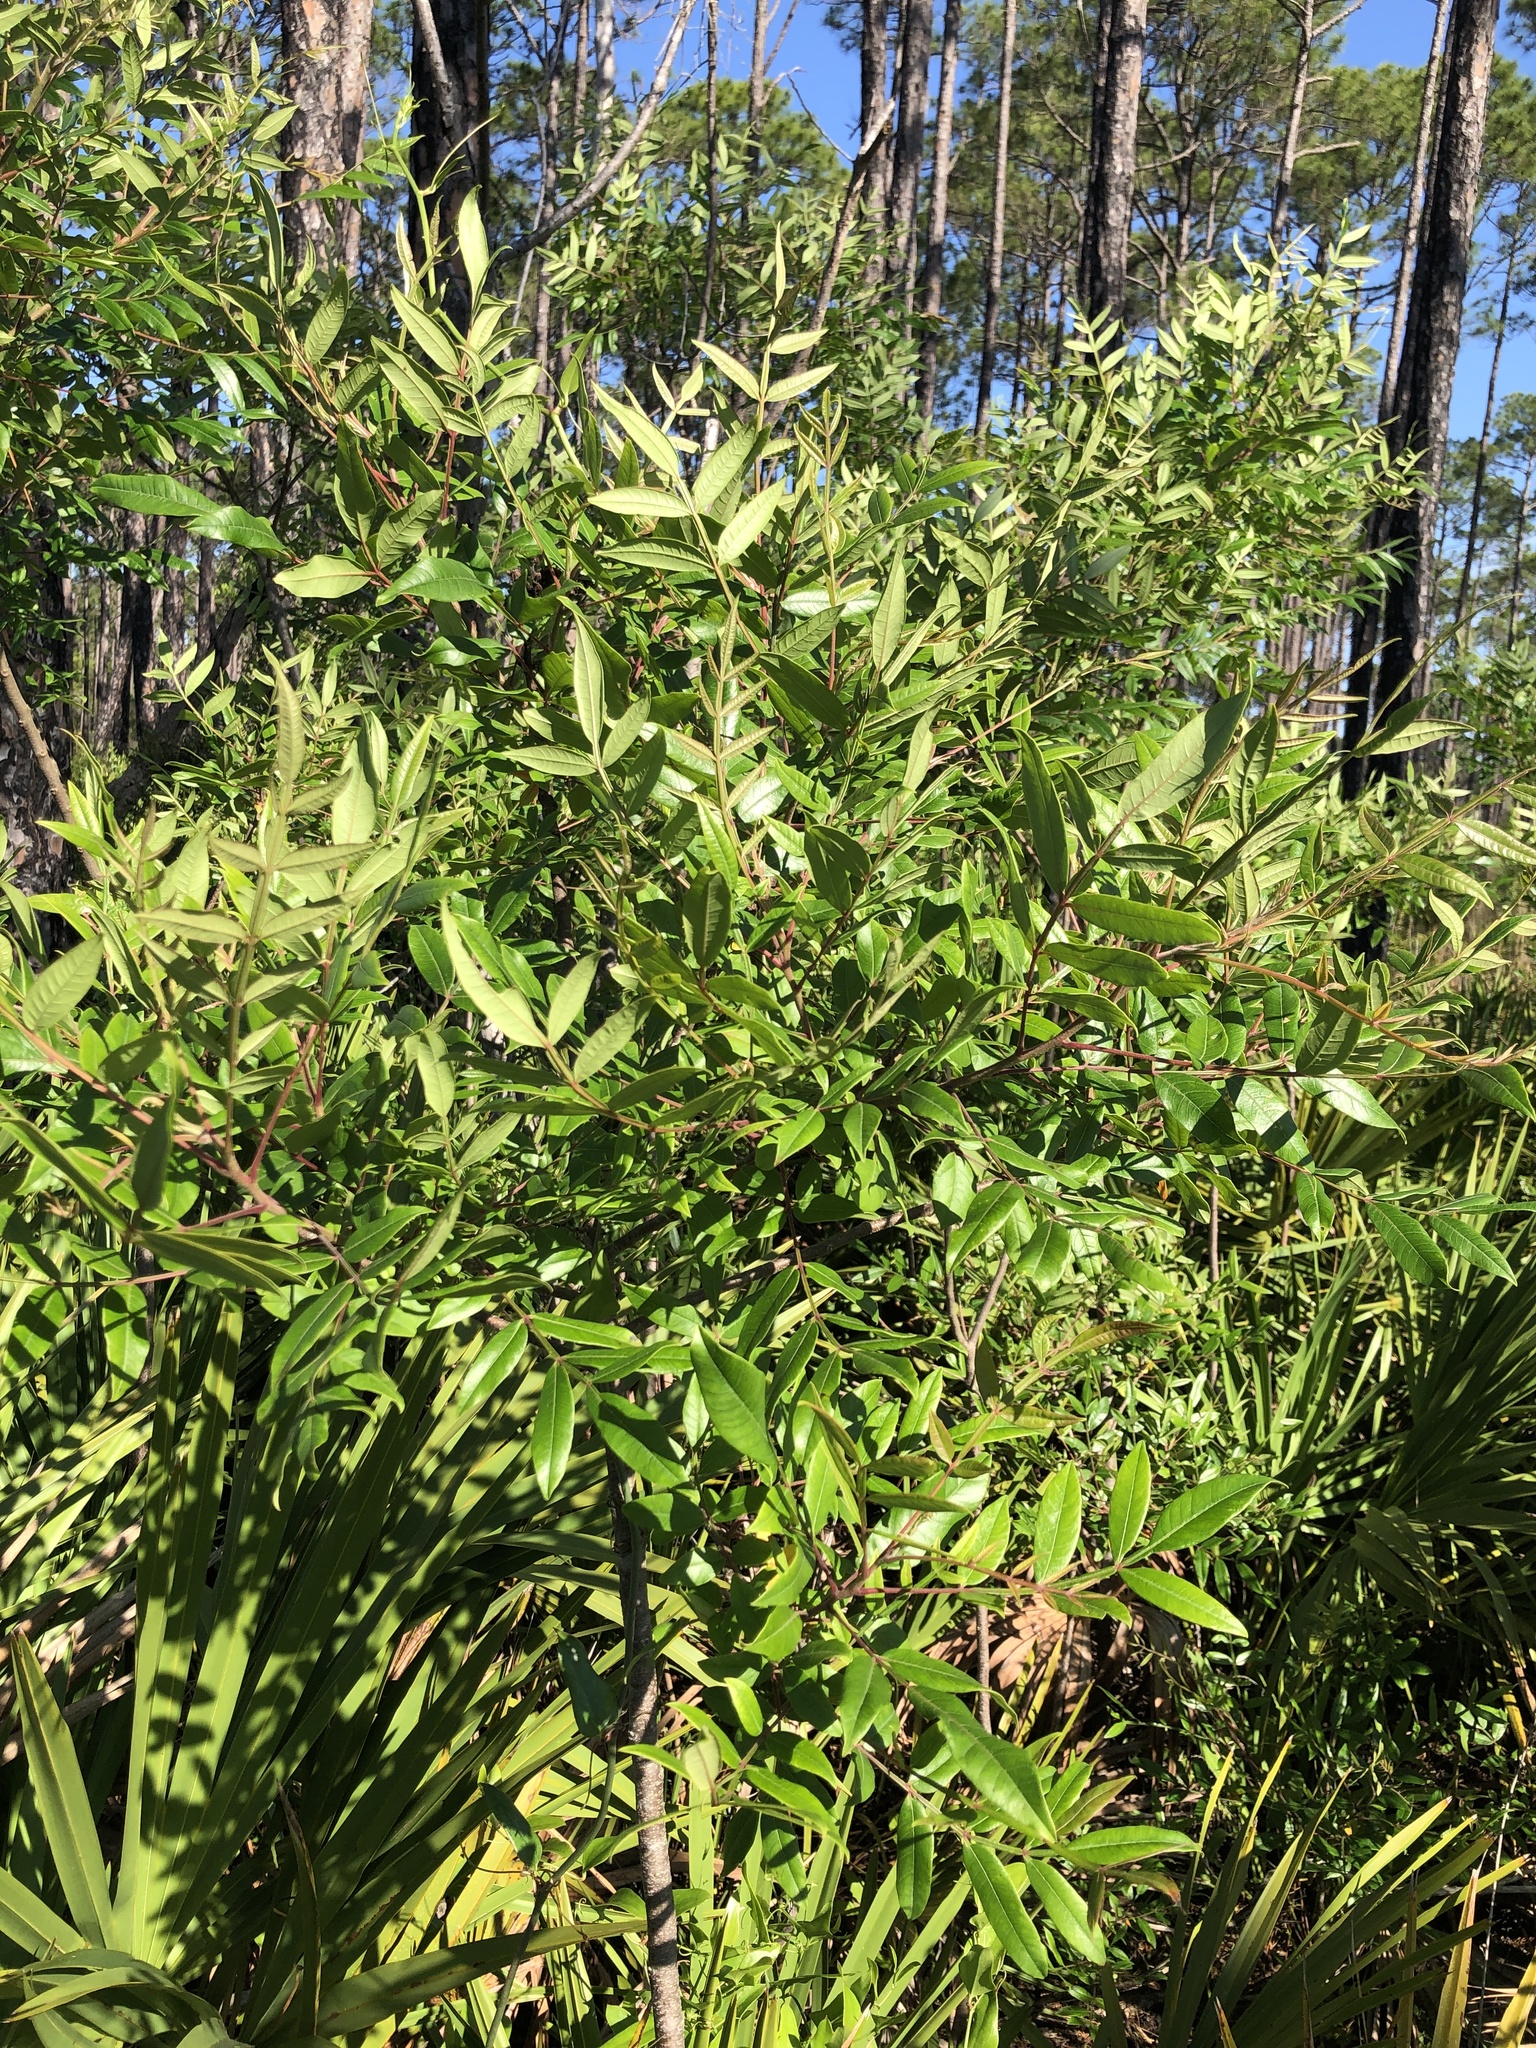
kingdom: Plantae
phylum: Tracheophyta
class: Magnoliopsida
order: Sapindales
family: Anacardiaceae
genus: Rhus
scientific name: Rhus copallina
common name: Shining sumac
